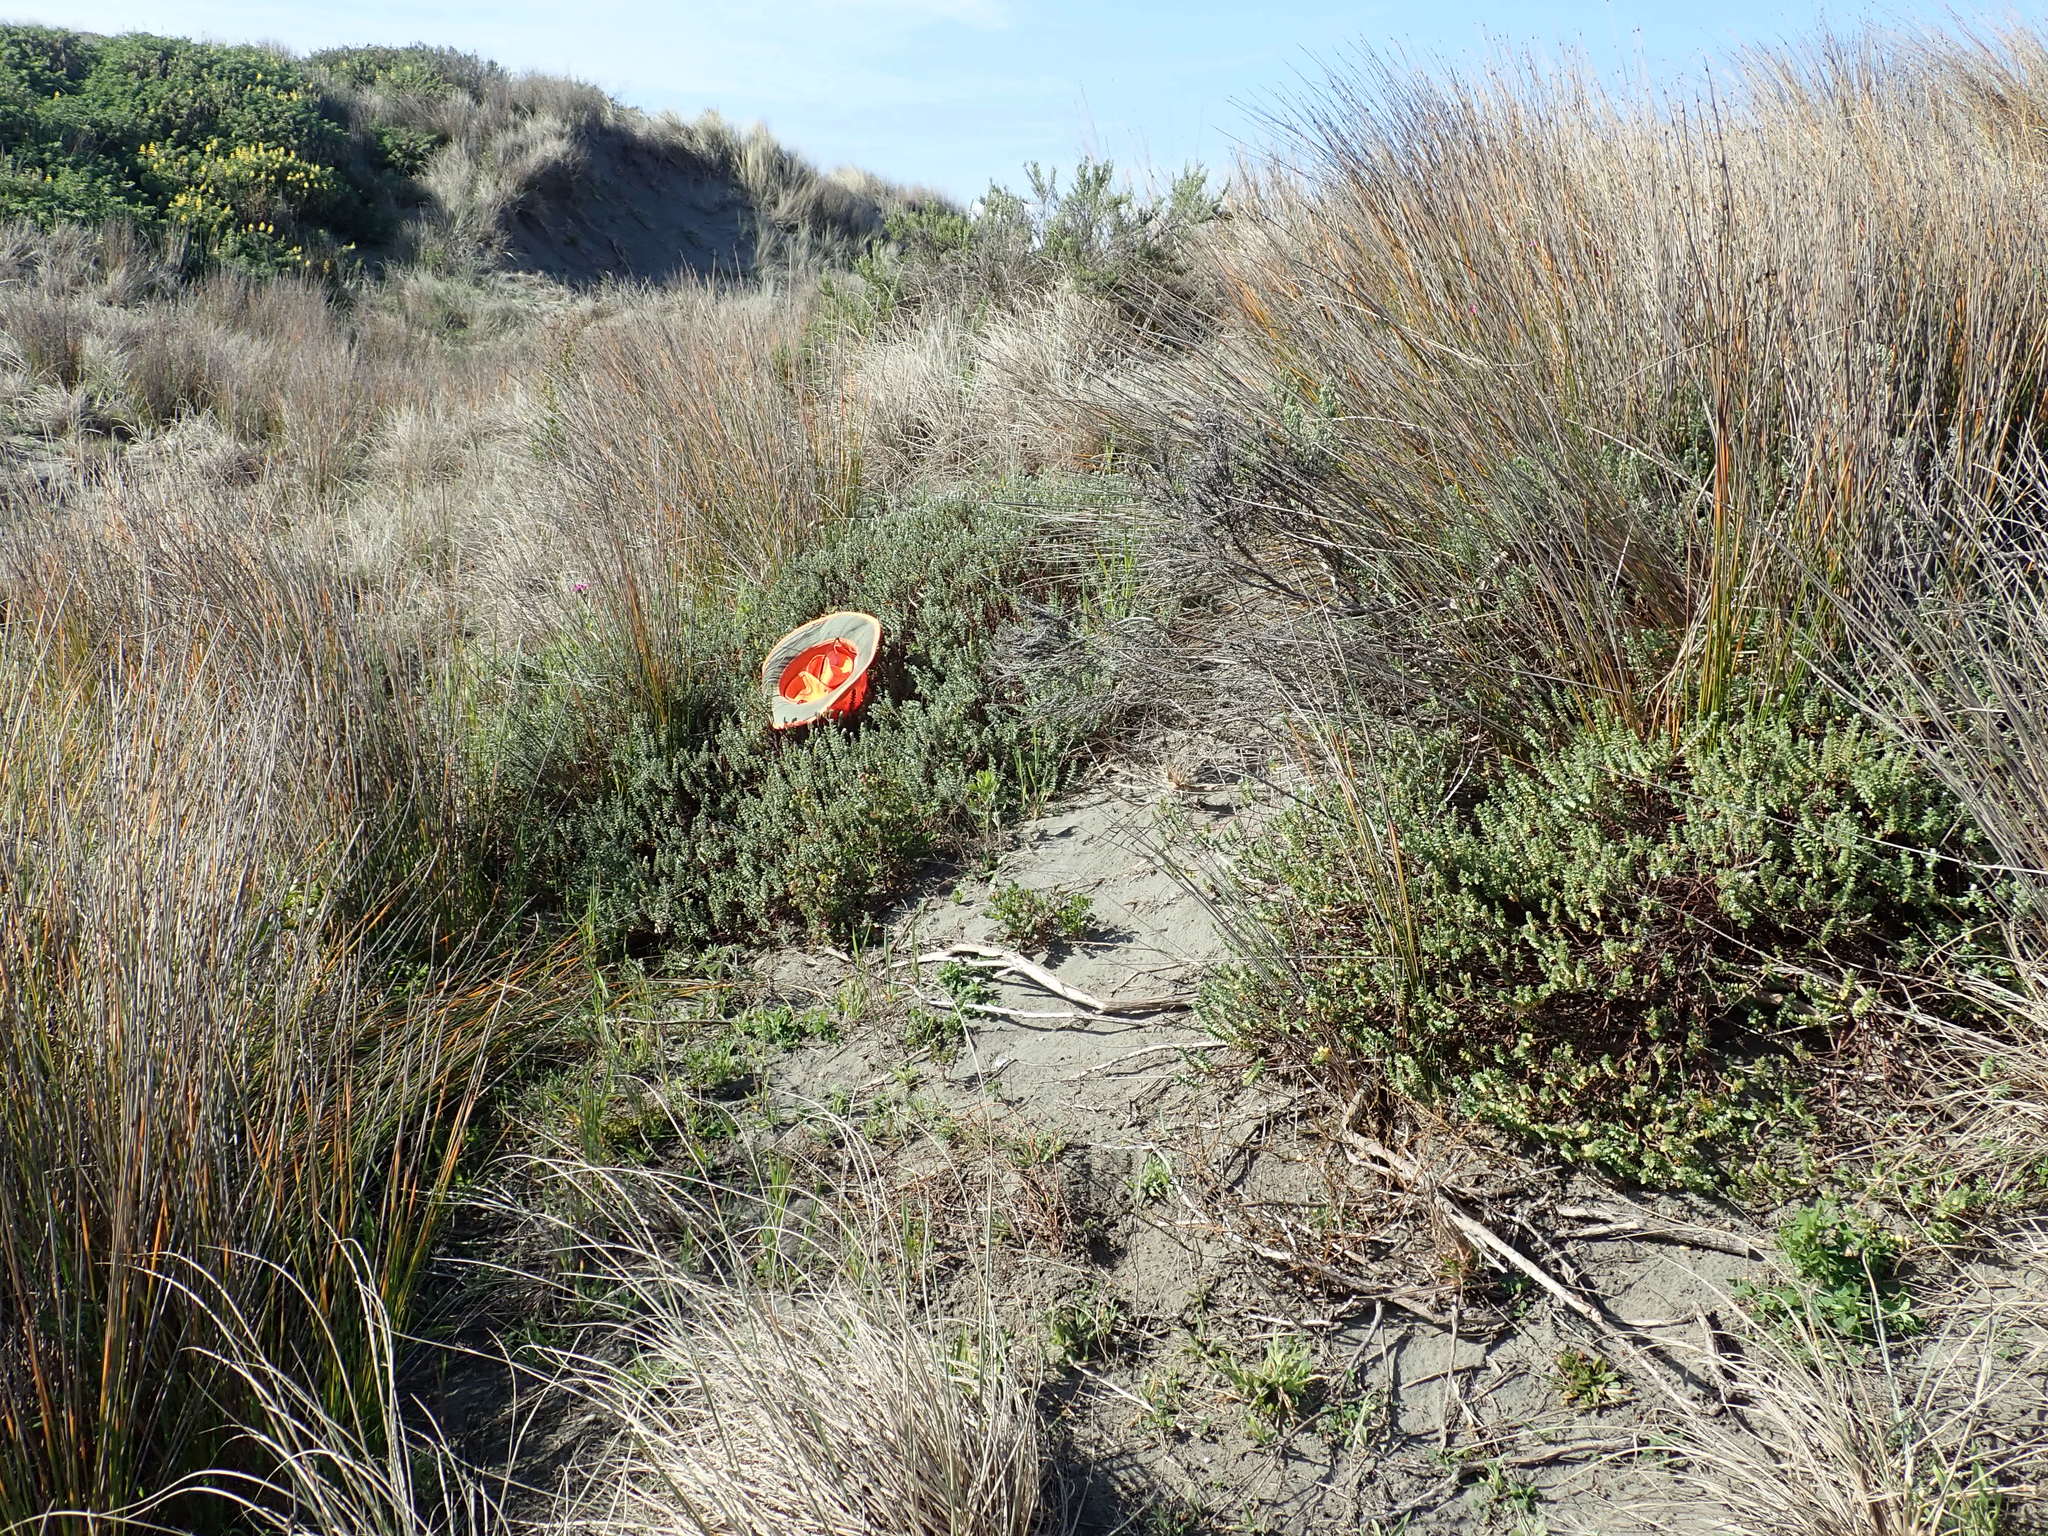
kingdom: Animalia
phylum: Arthropoda
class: Arachnida
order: Araneae
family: Theridiidae
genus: Latrodectus
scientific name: Latrodectus katipo
